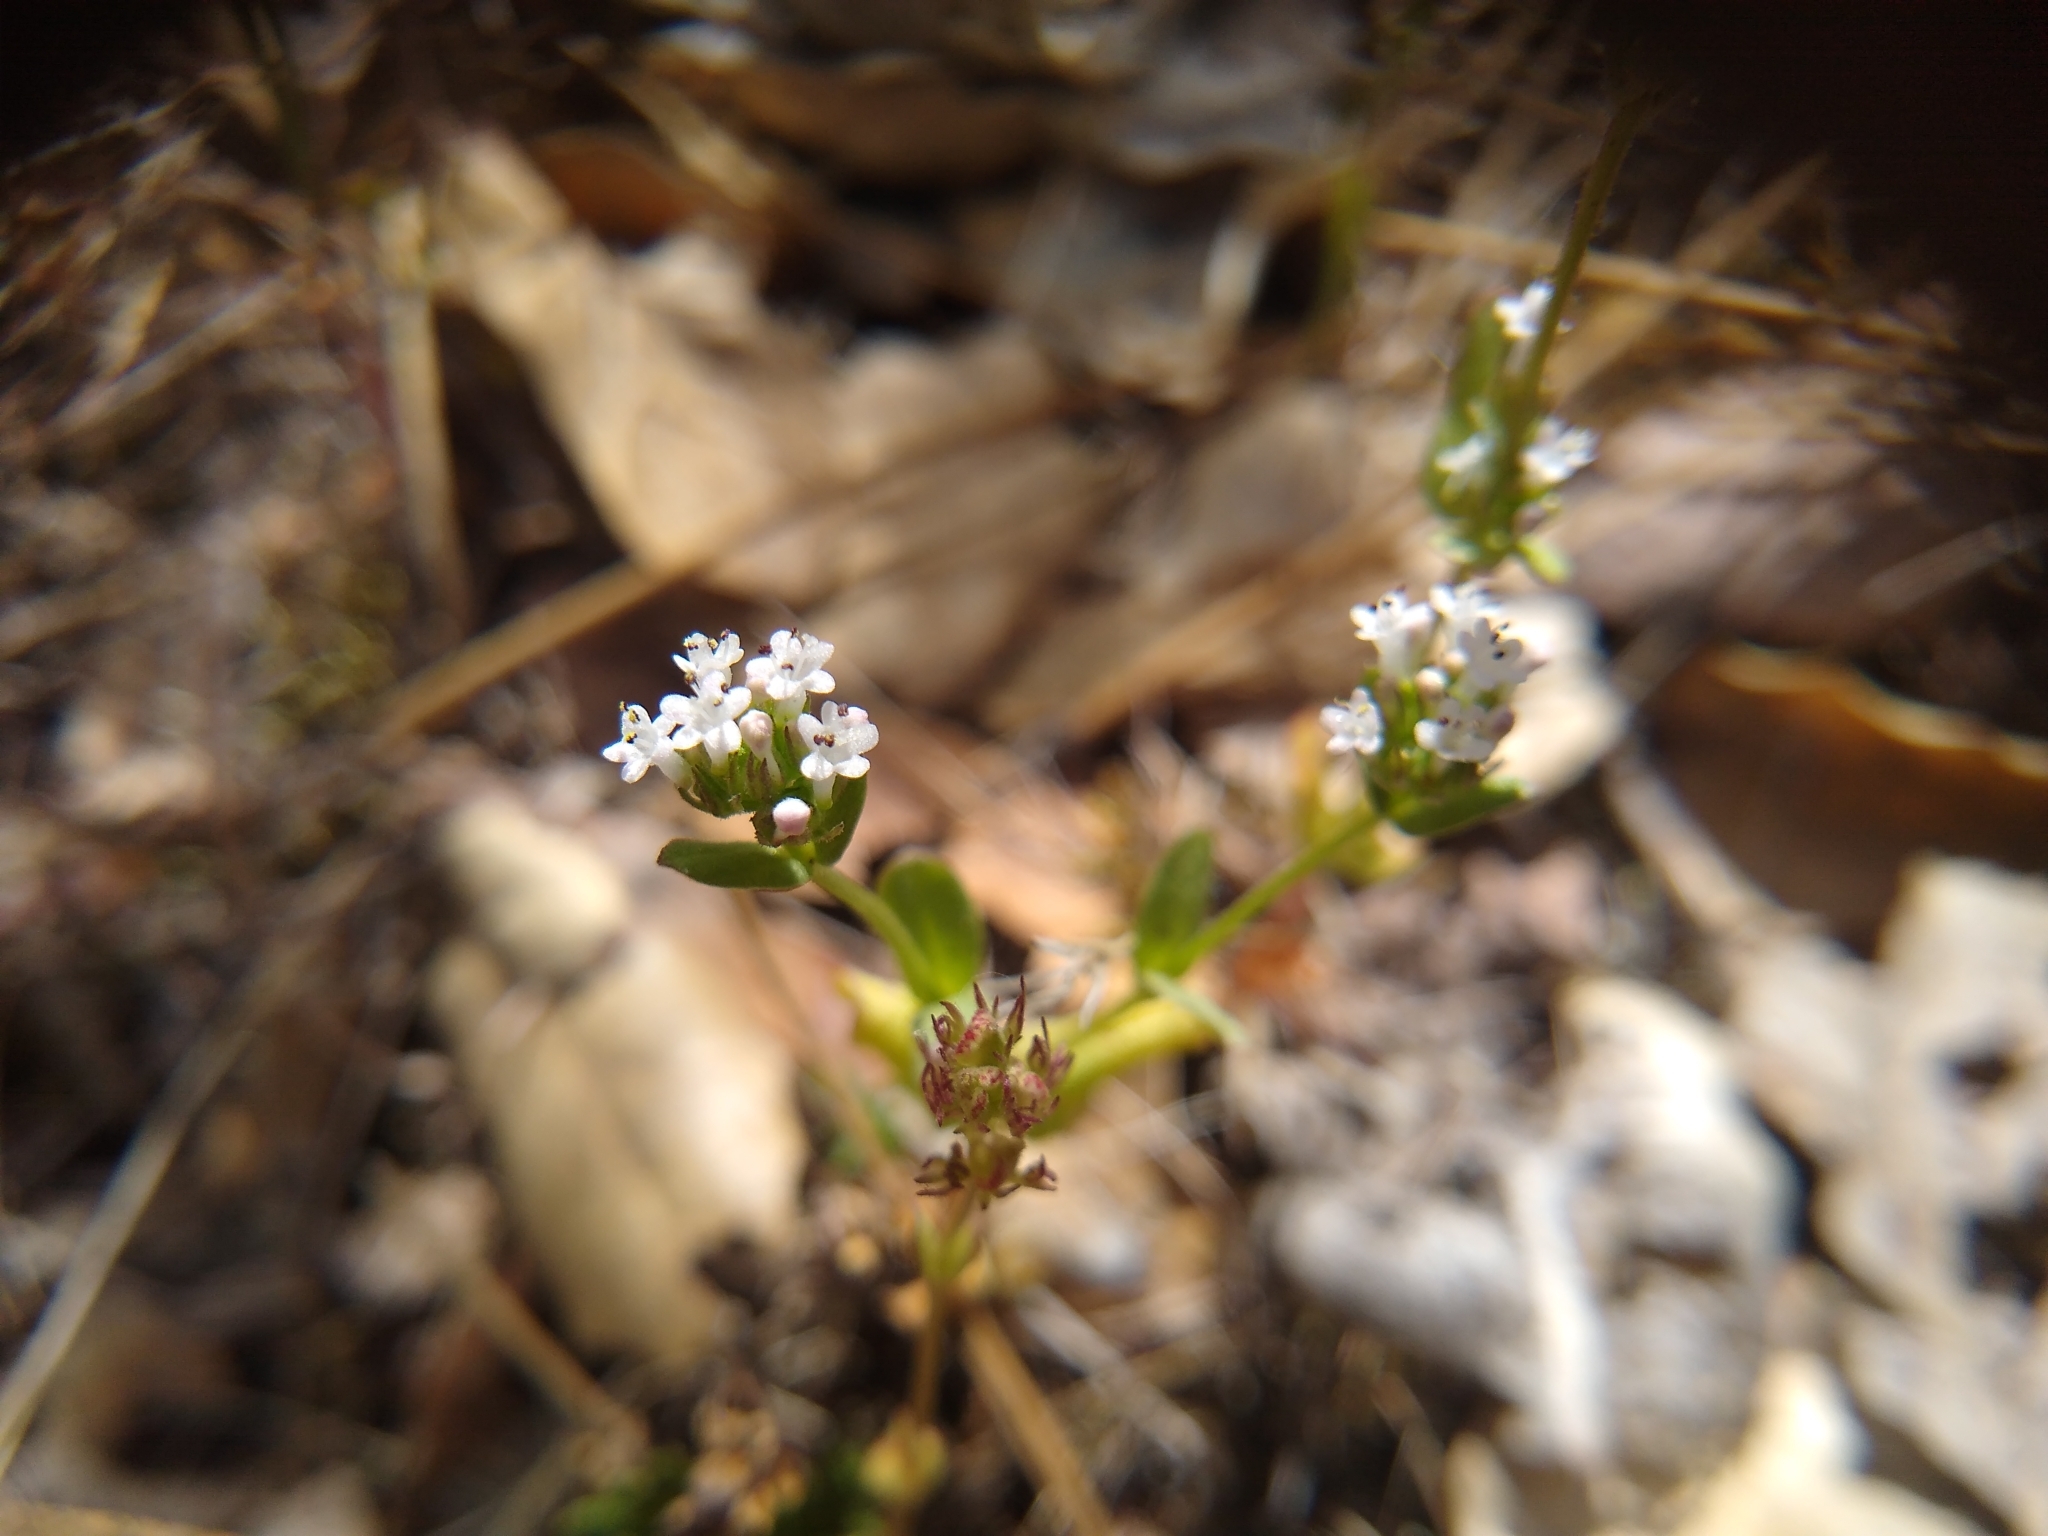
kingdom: Plantae
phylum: Tracheophyta
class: Magnoliopsida
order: Dipsacales
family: Caprifoliaceae
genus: Plectritis
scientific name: Plectritis macroptera
